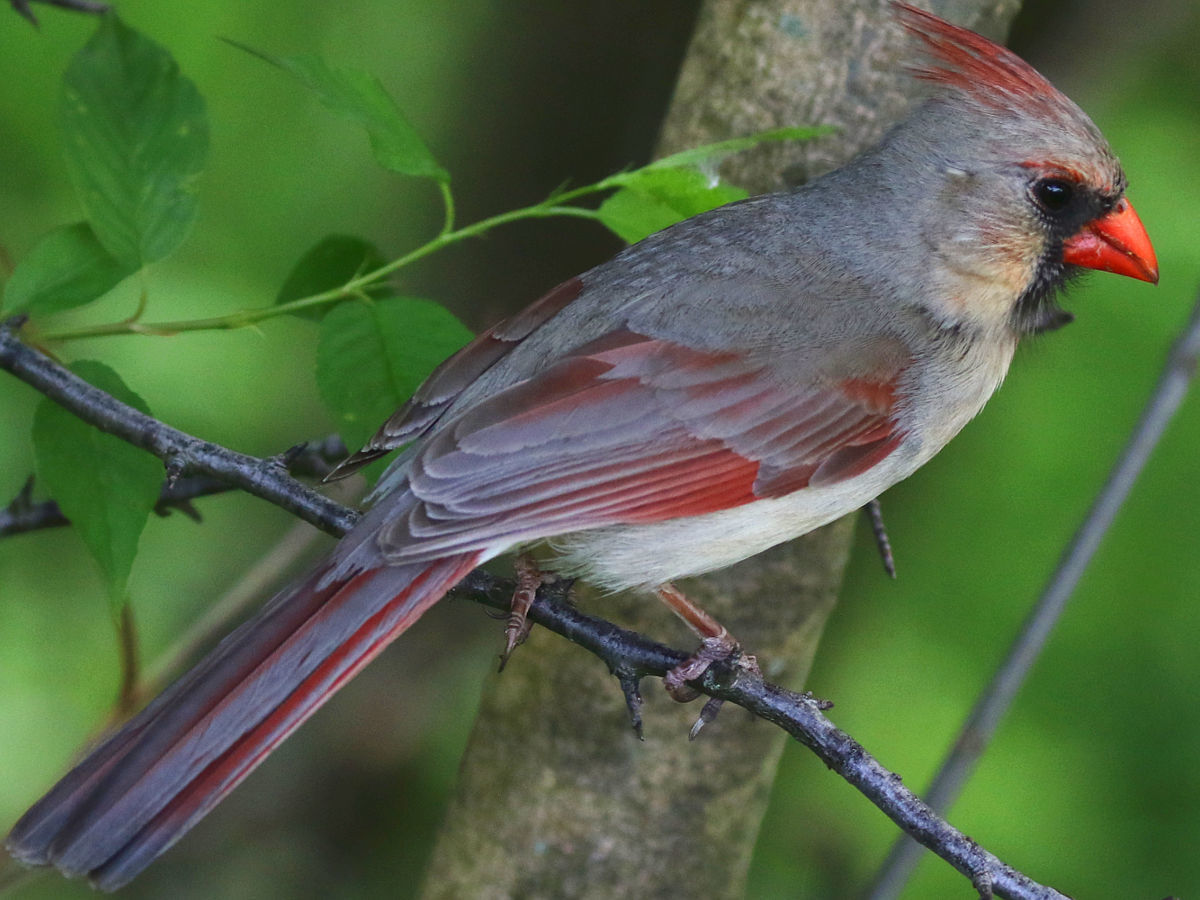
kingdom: Animalia
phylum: Chordata
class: Aves
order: Passeriformes
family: Cardinalidae
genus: Cardinalis
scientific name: Cardinalis cardinalis
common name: Northern cardinal
